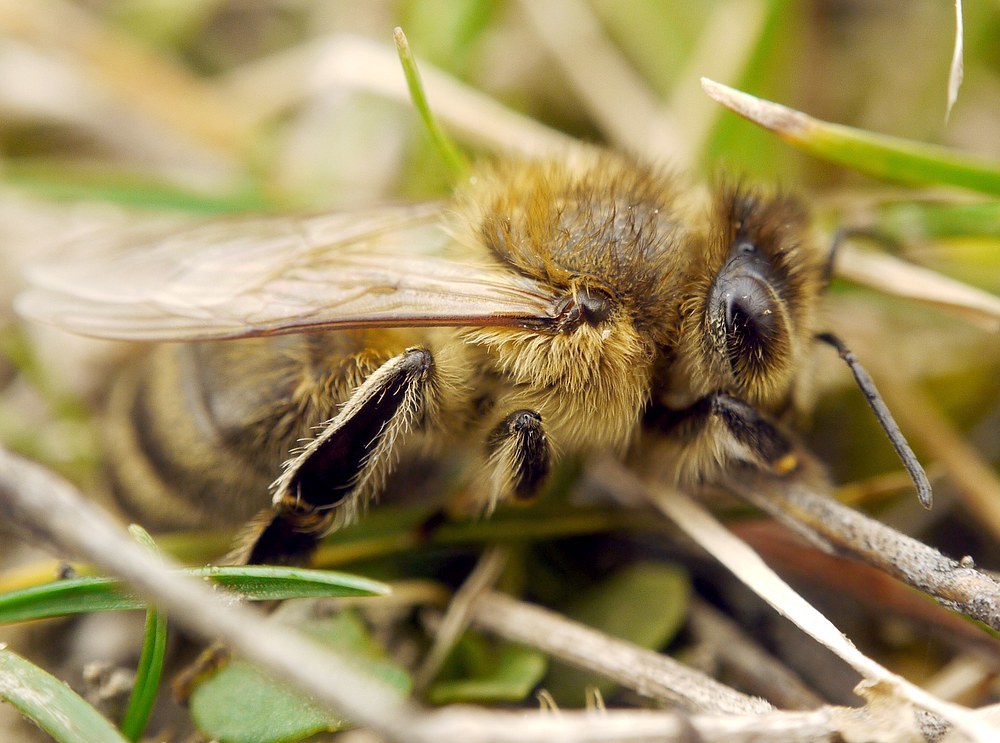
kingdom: Animalia
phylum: Arthropoda
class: Insecta
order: Hymenoptera
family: Apidae
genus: Apis
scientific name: Apis mellifera
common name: Honey bee
